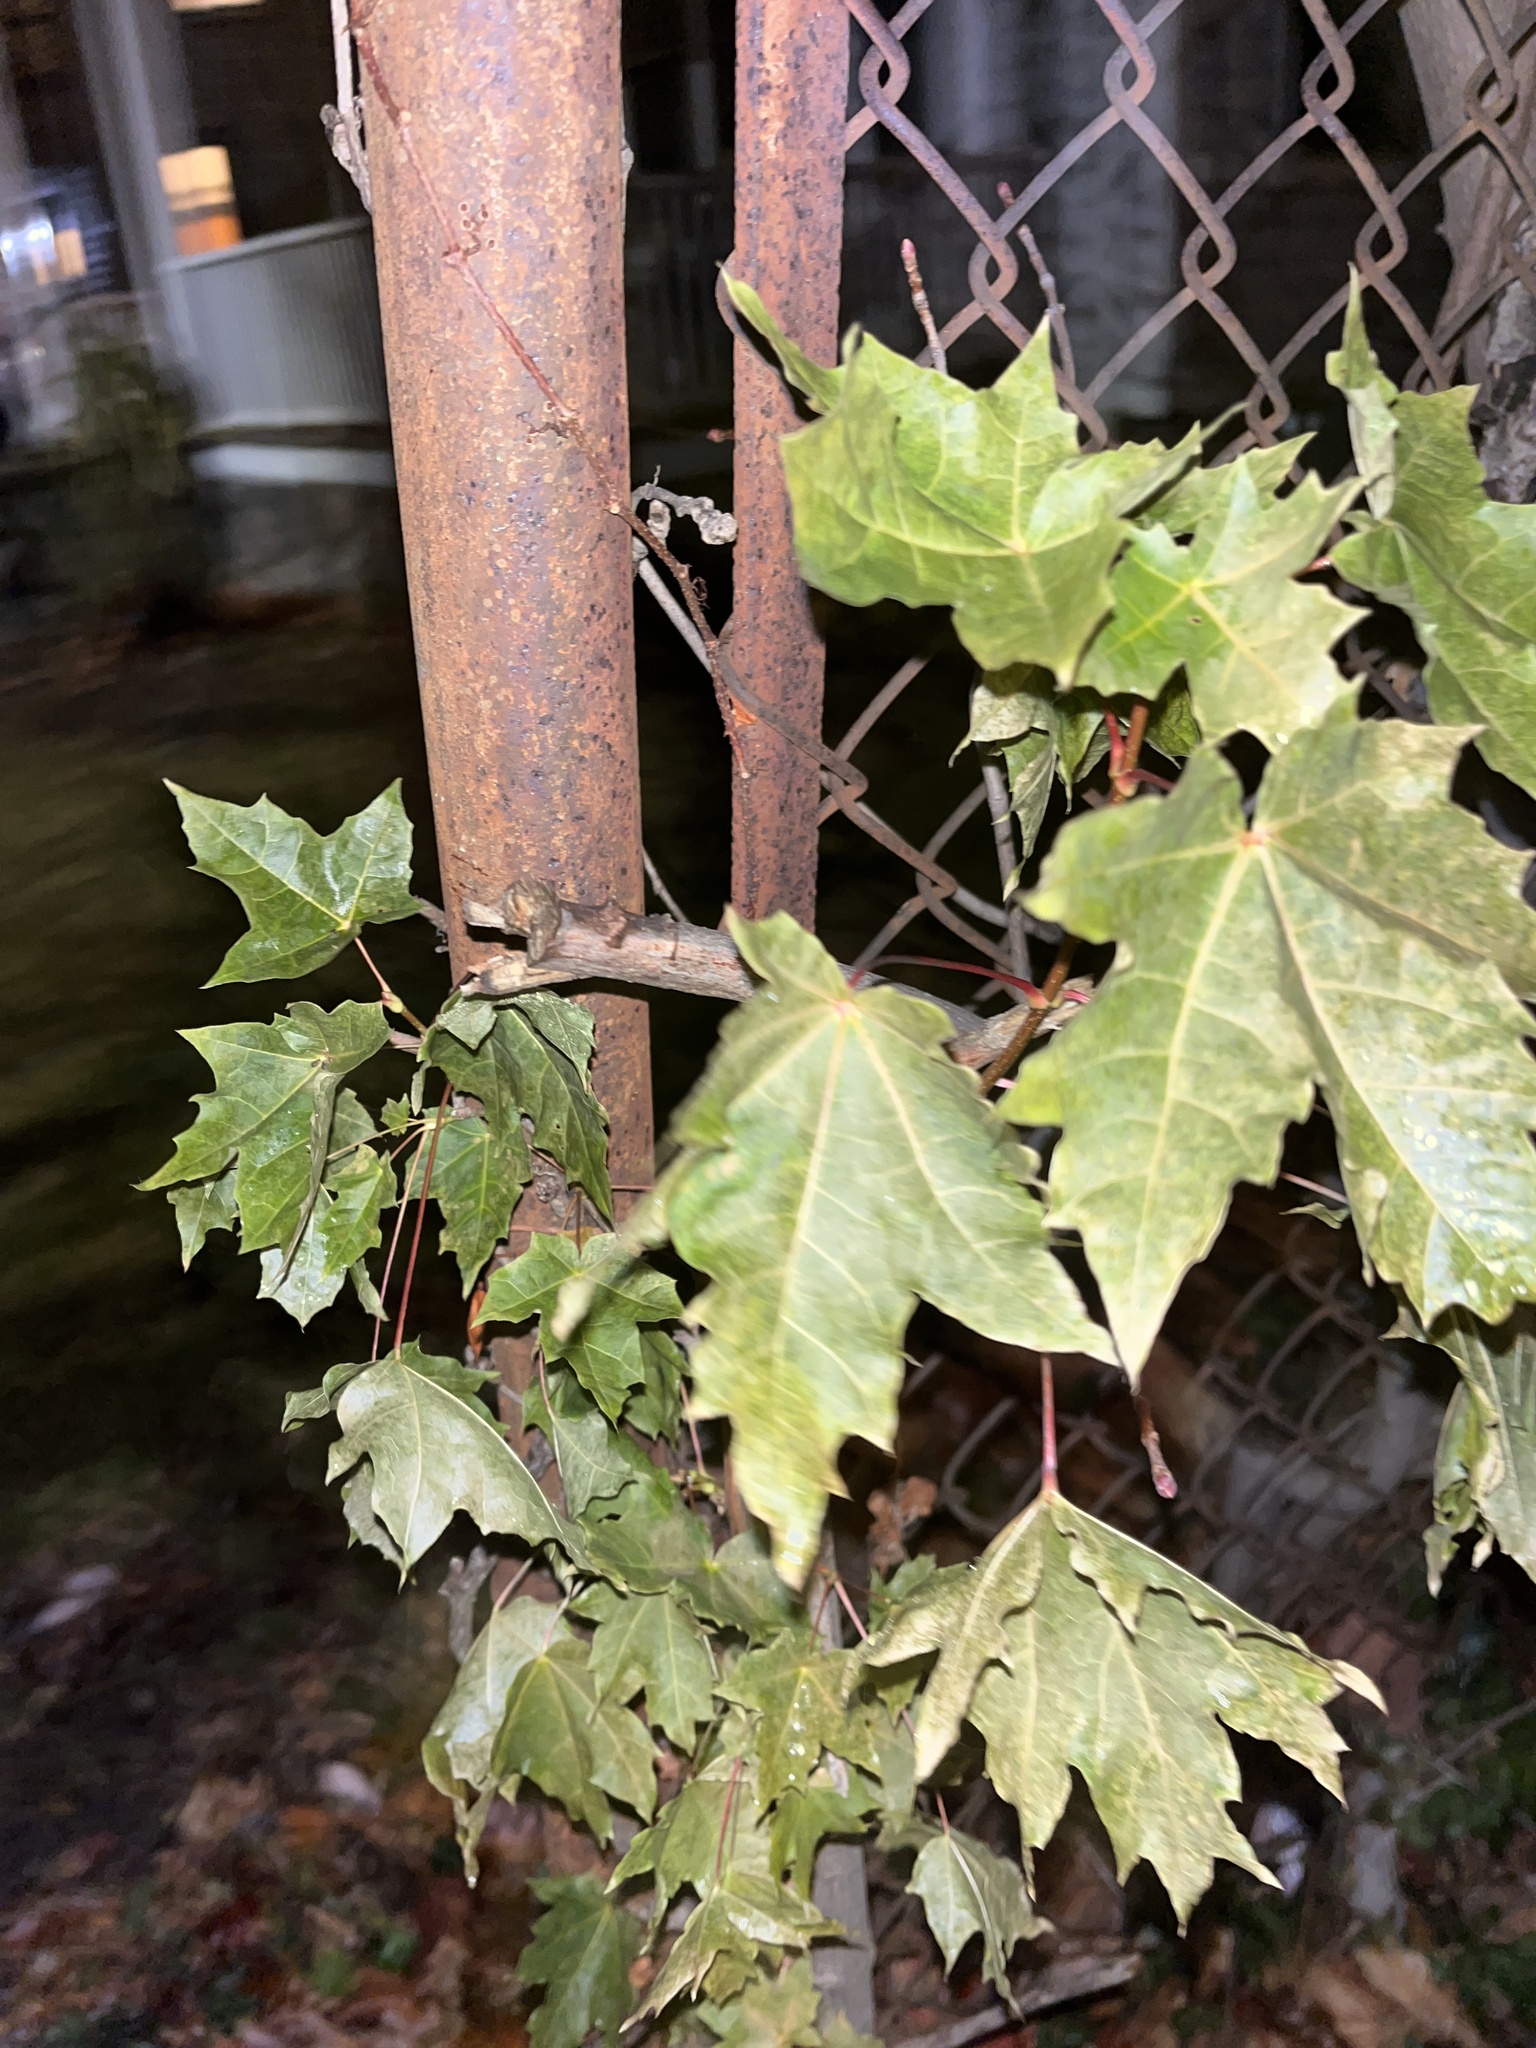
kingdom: Plantae
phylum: Tracheophyta
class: Magnoliopsida
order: Sapindales
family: Sapindaceae
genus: Acer
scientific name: Acer platanoides
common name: Norway maple
